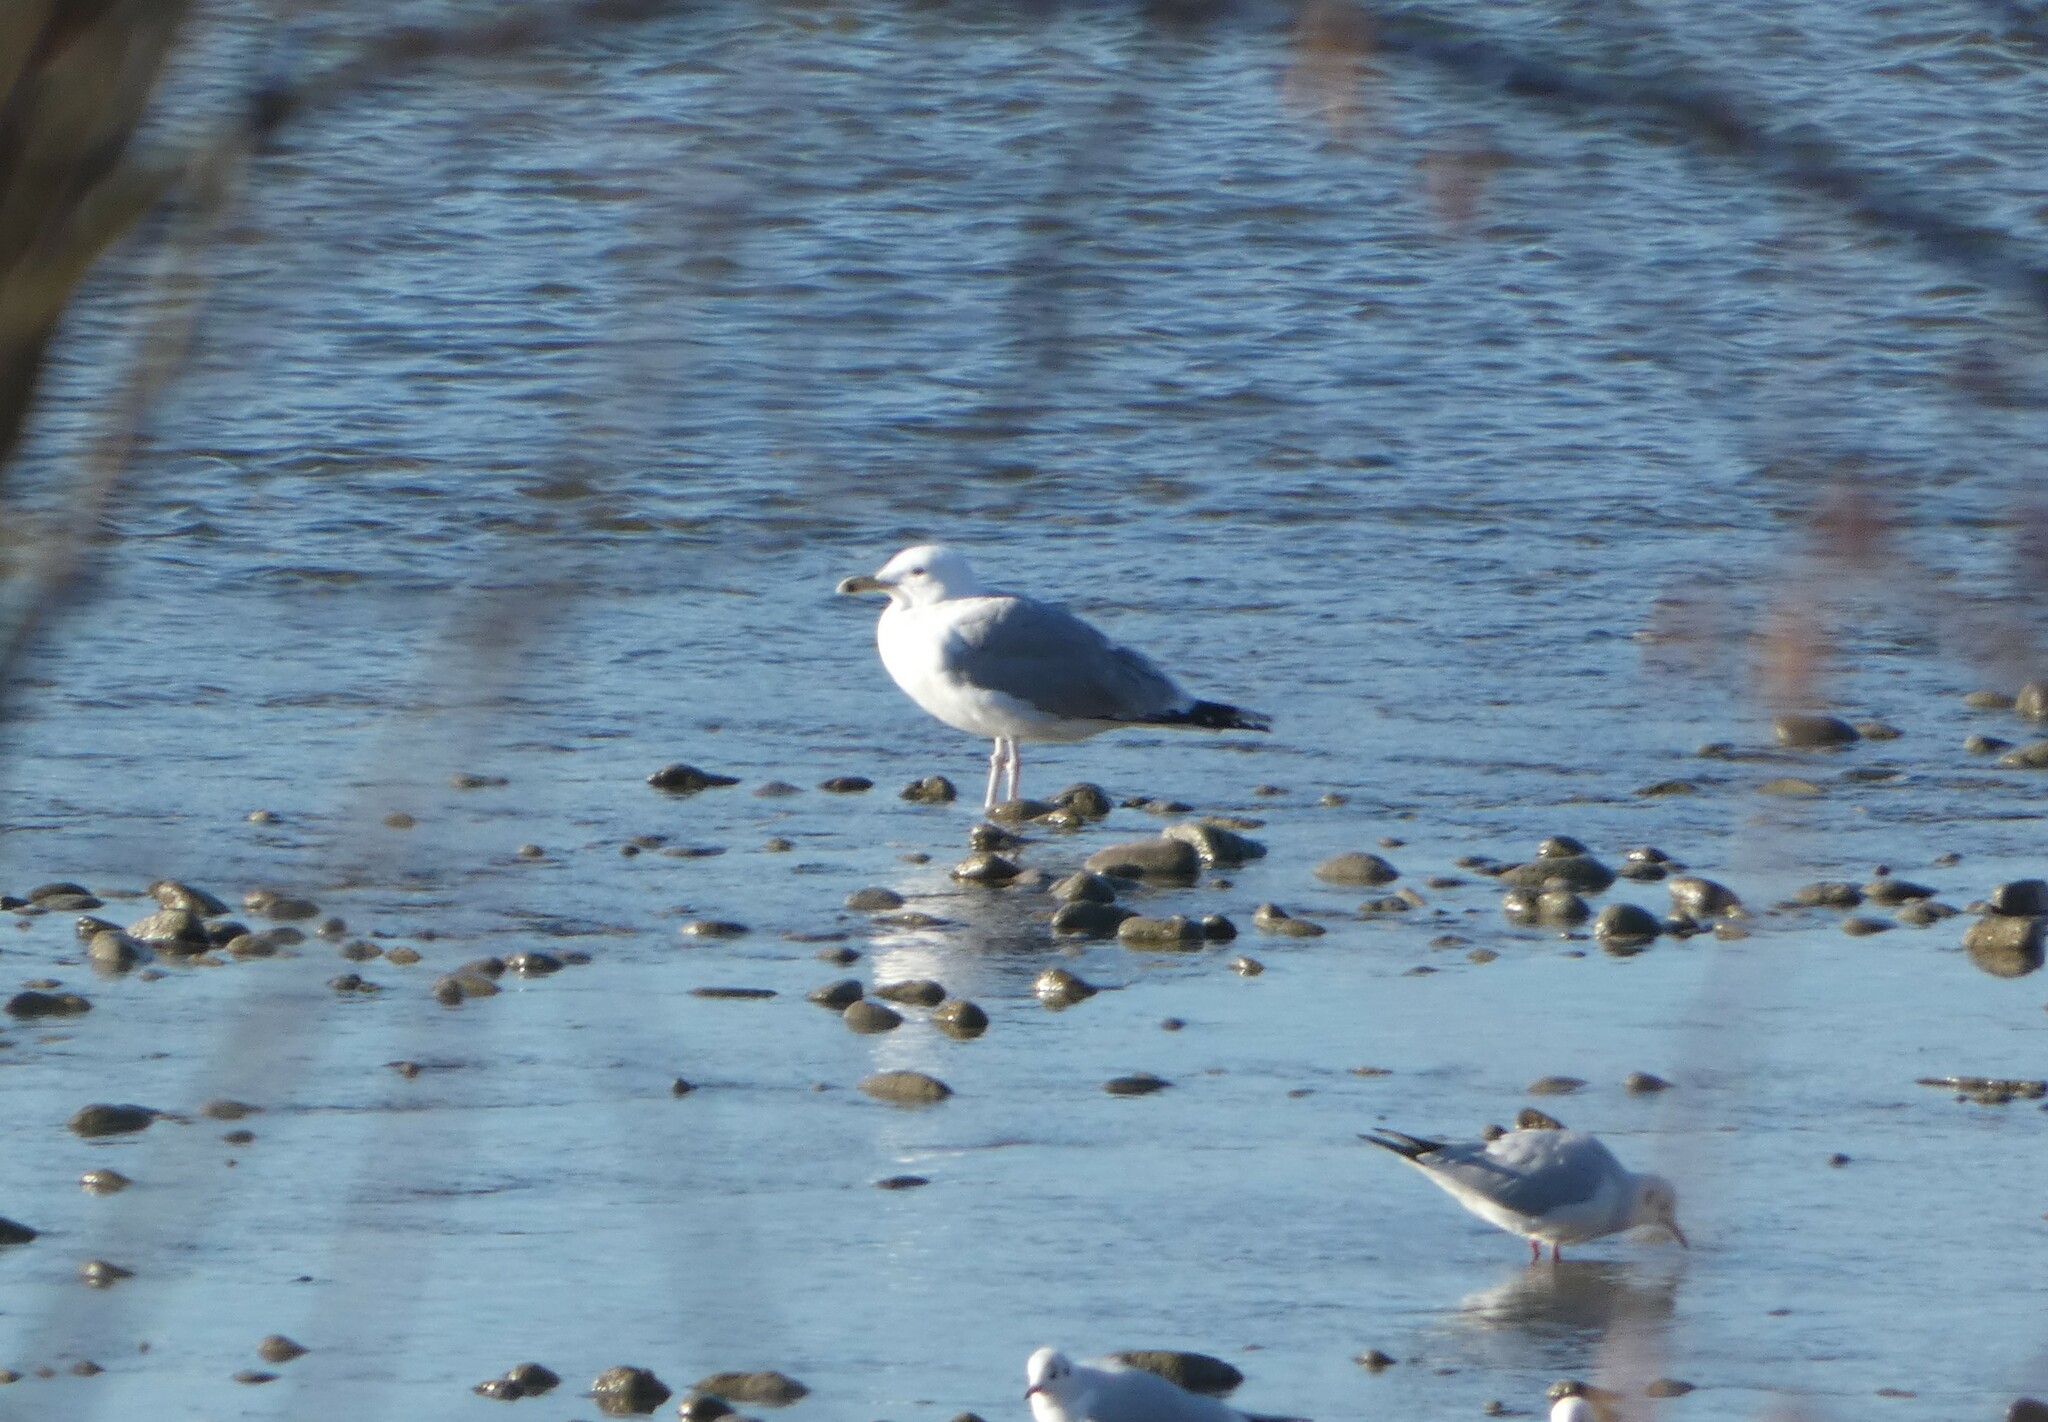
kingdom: Animalia
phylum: Chordata
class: Aves
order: Charadriiformes
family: Laridae
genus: Larus
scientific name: Larus cachinnans
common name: Caspian gull
